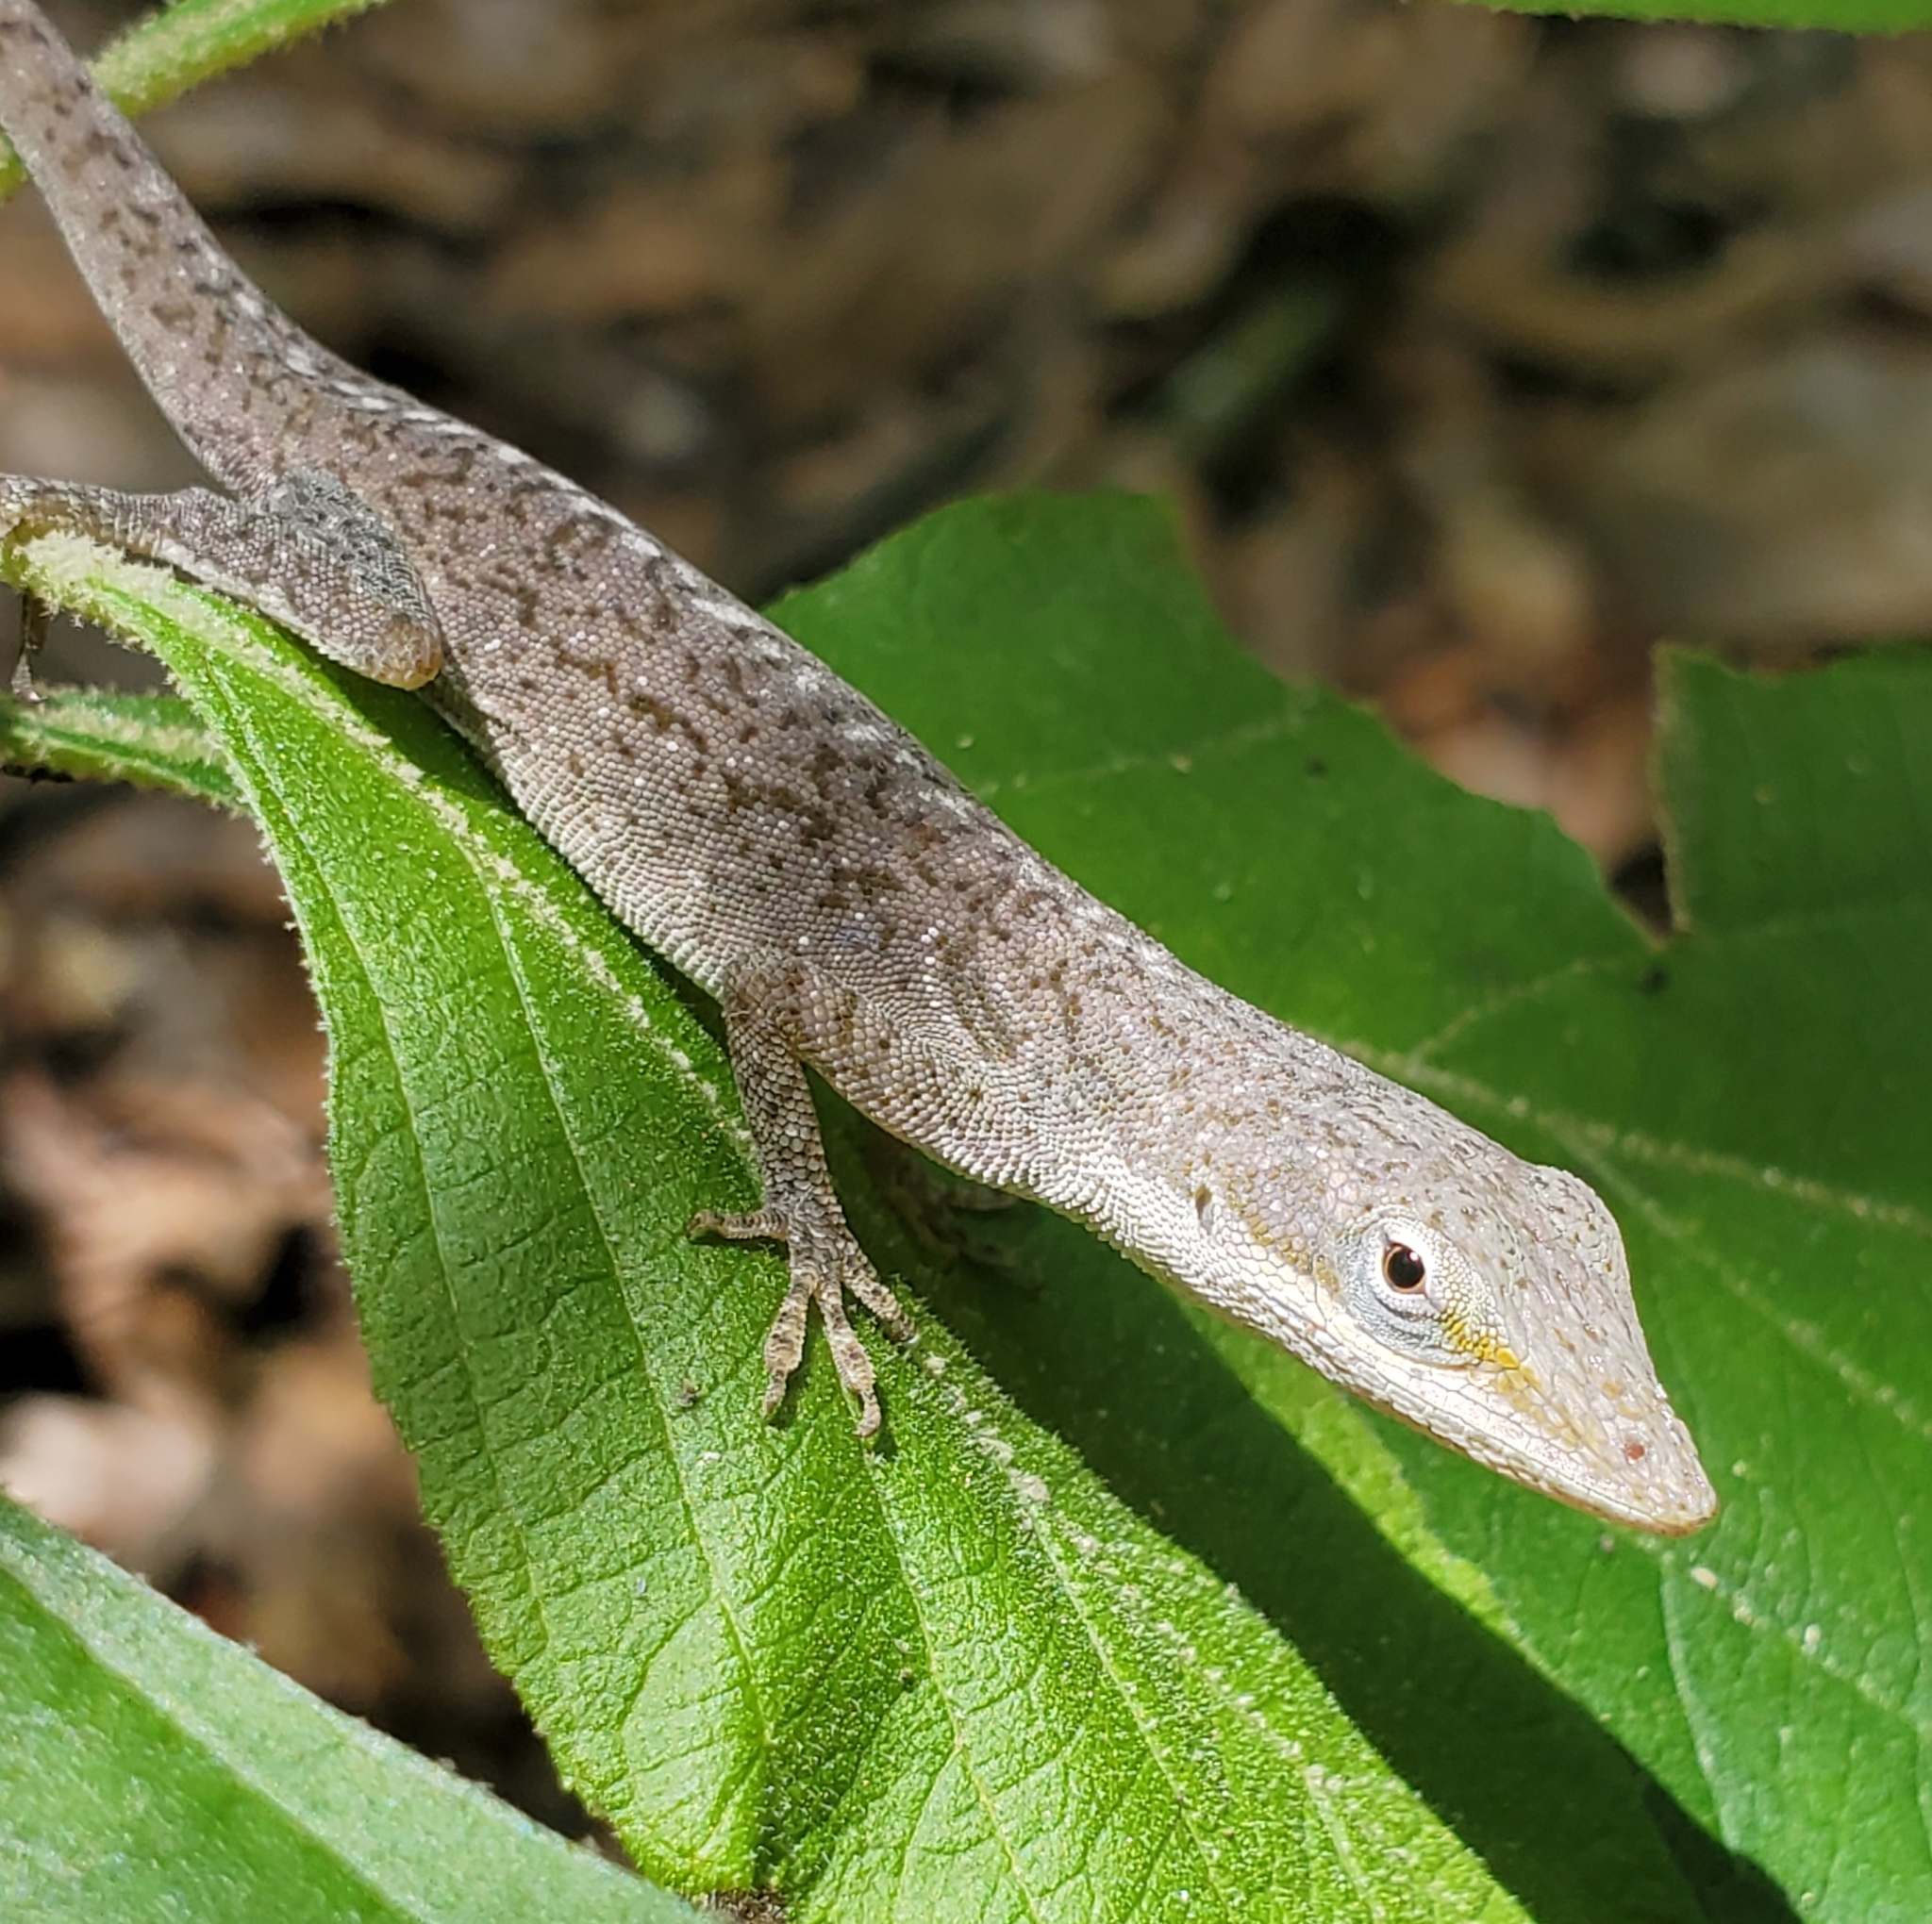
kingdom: Animalia
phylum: Chordata
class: Squamata
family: Dactyloidae
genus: Anolis
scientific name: Anolis carolinensis
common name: Green anole
